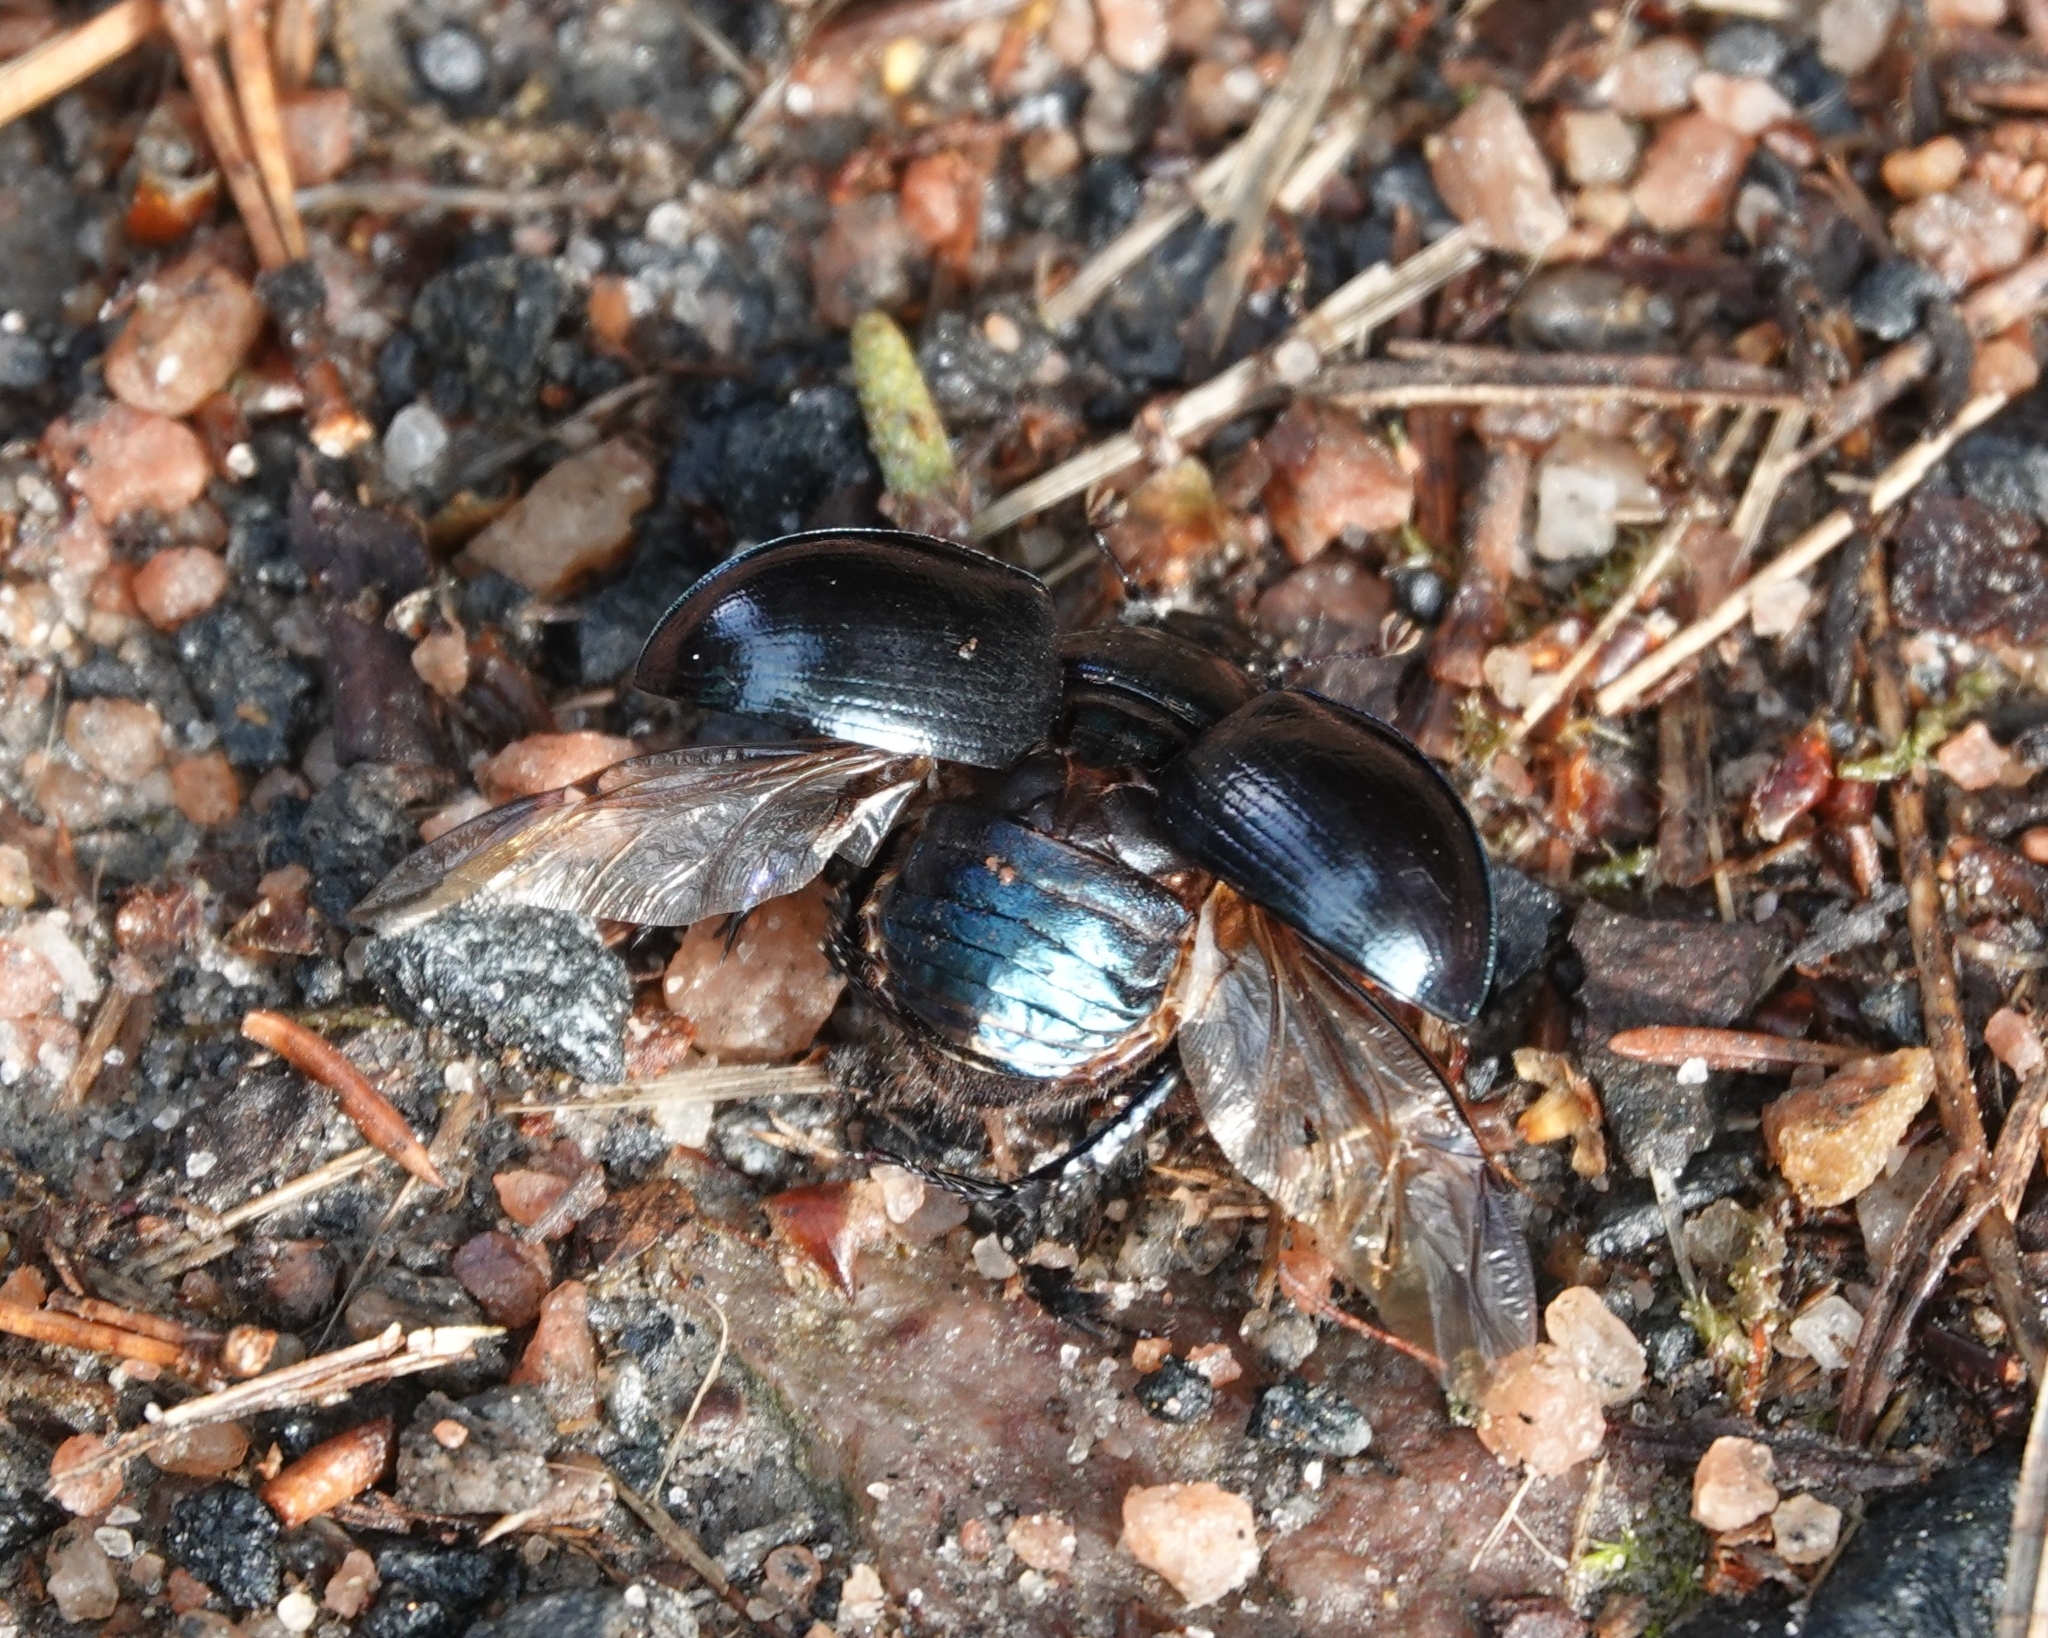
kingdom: Animalia
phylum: Arthropoda
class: Insecta
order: Coleoptera
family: Geotrupidae
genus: Anoplotrupes
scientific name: Anoplotrupes stercorosus
